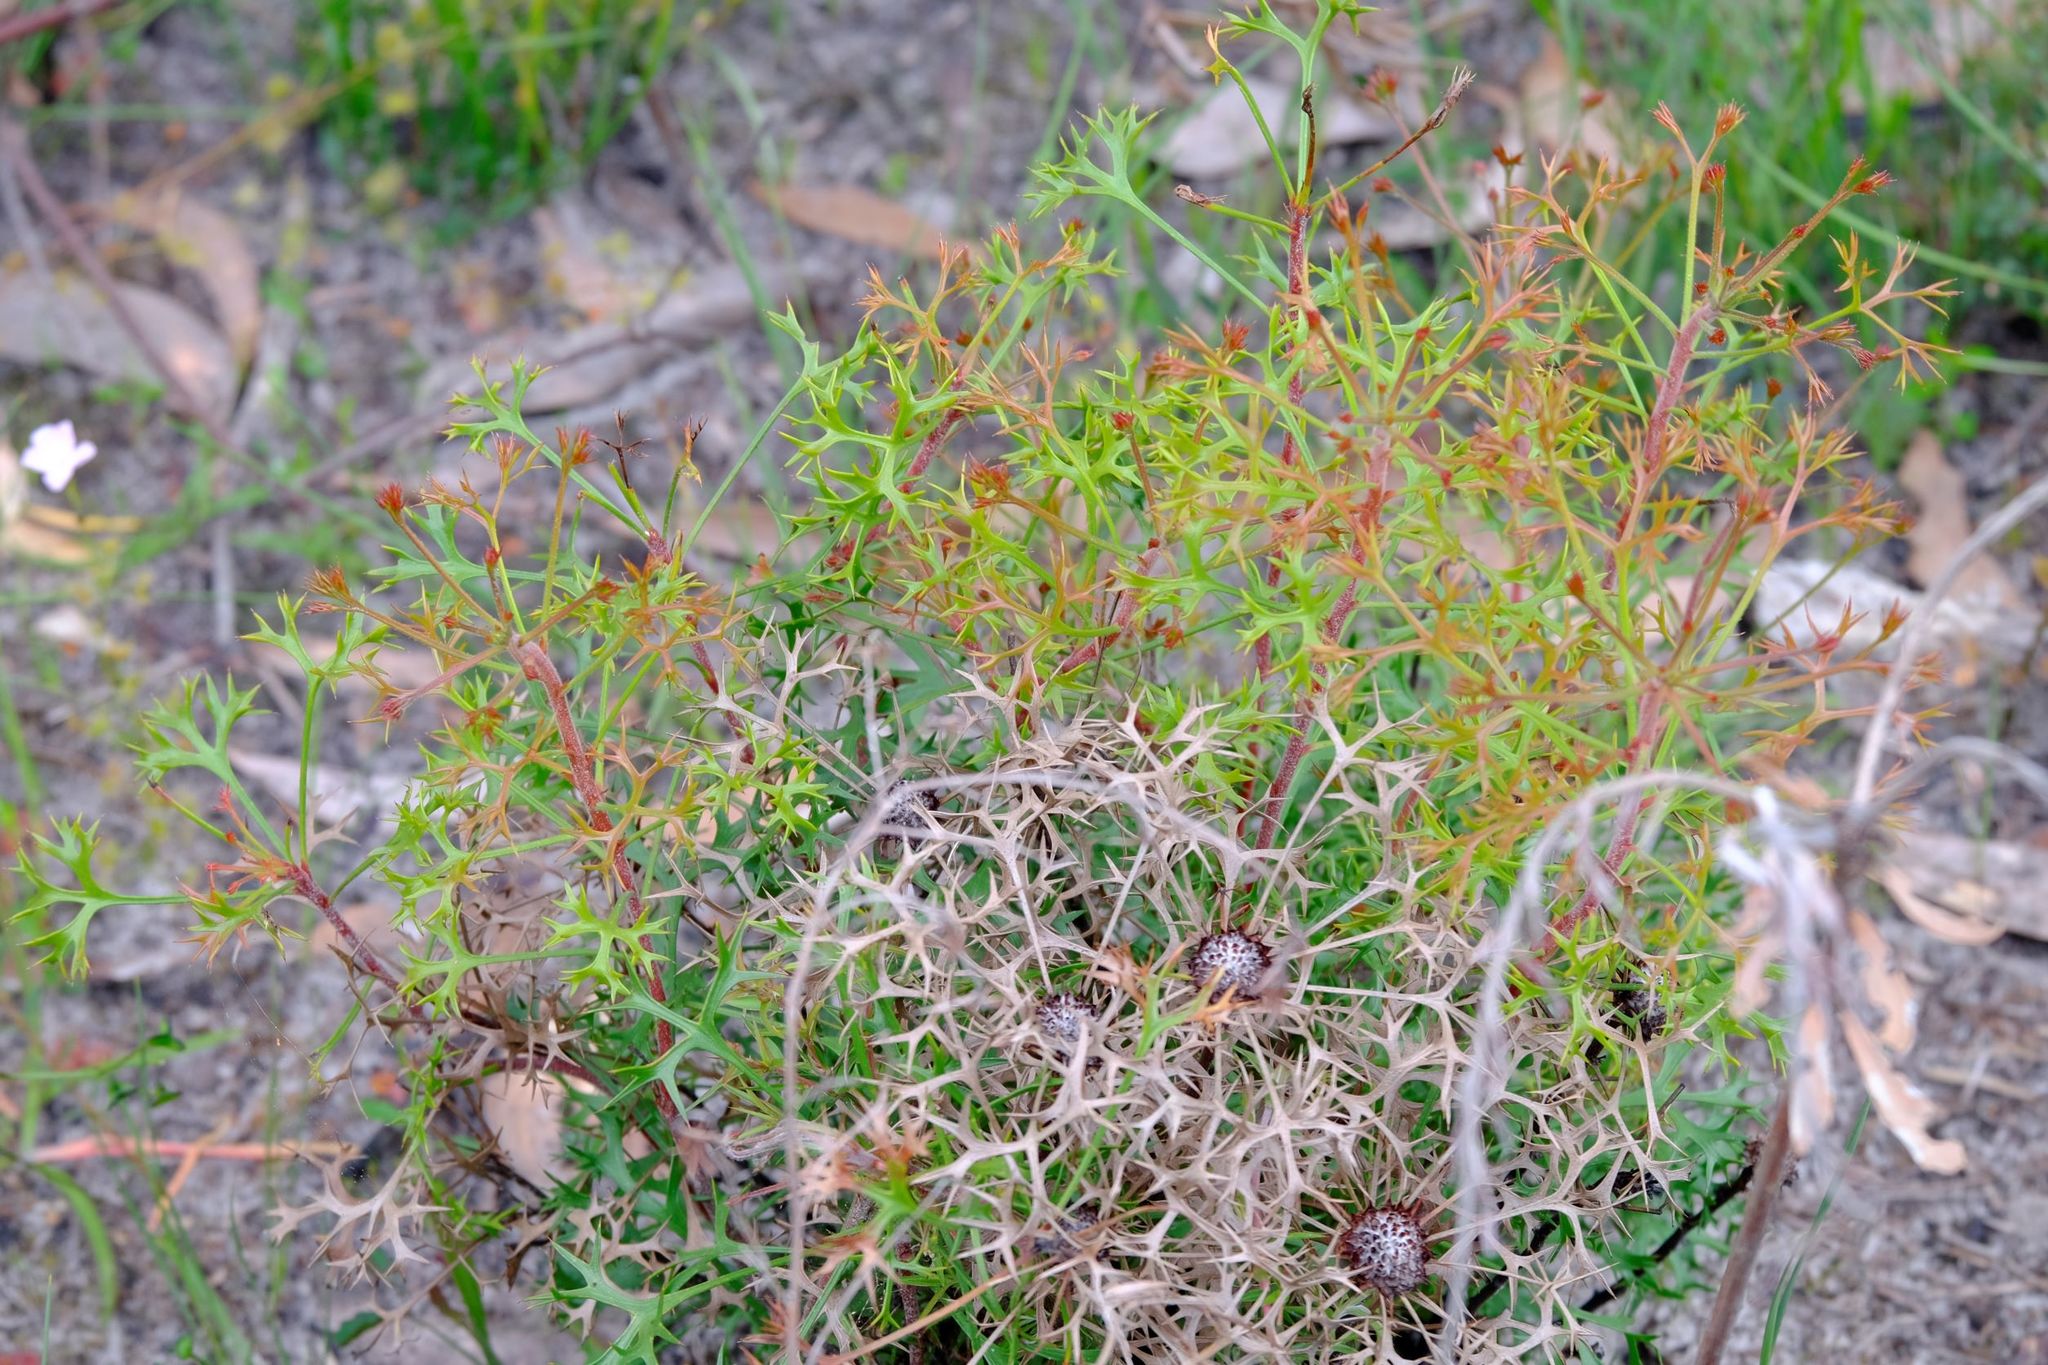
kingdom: Plantae
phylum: Tracheophyta
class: Magnoliopsida
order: Proteales
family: Proteaceae
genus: Isopogon
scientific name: Isopogon ceratophyllus
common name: Horny cone-bush
